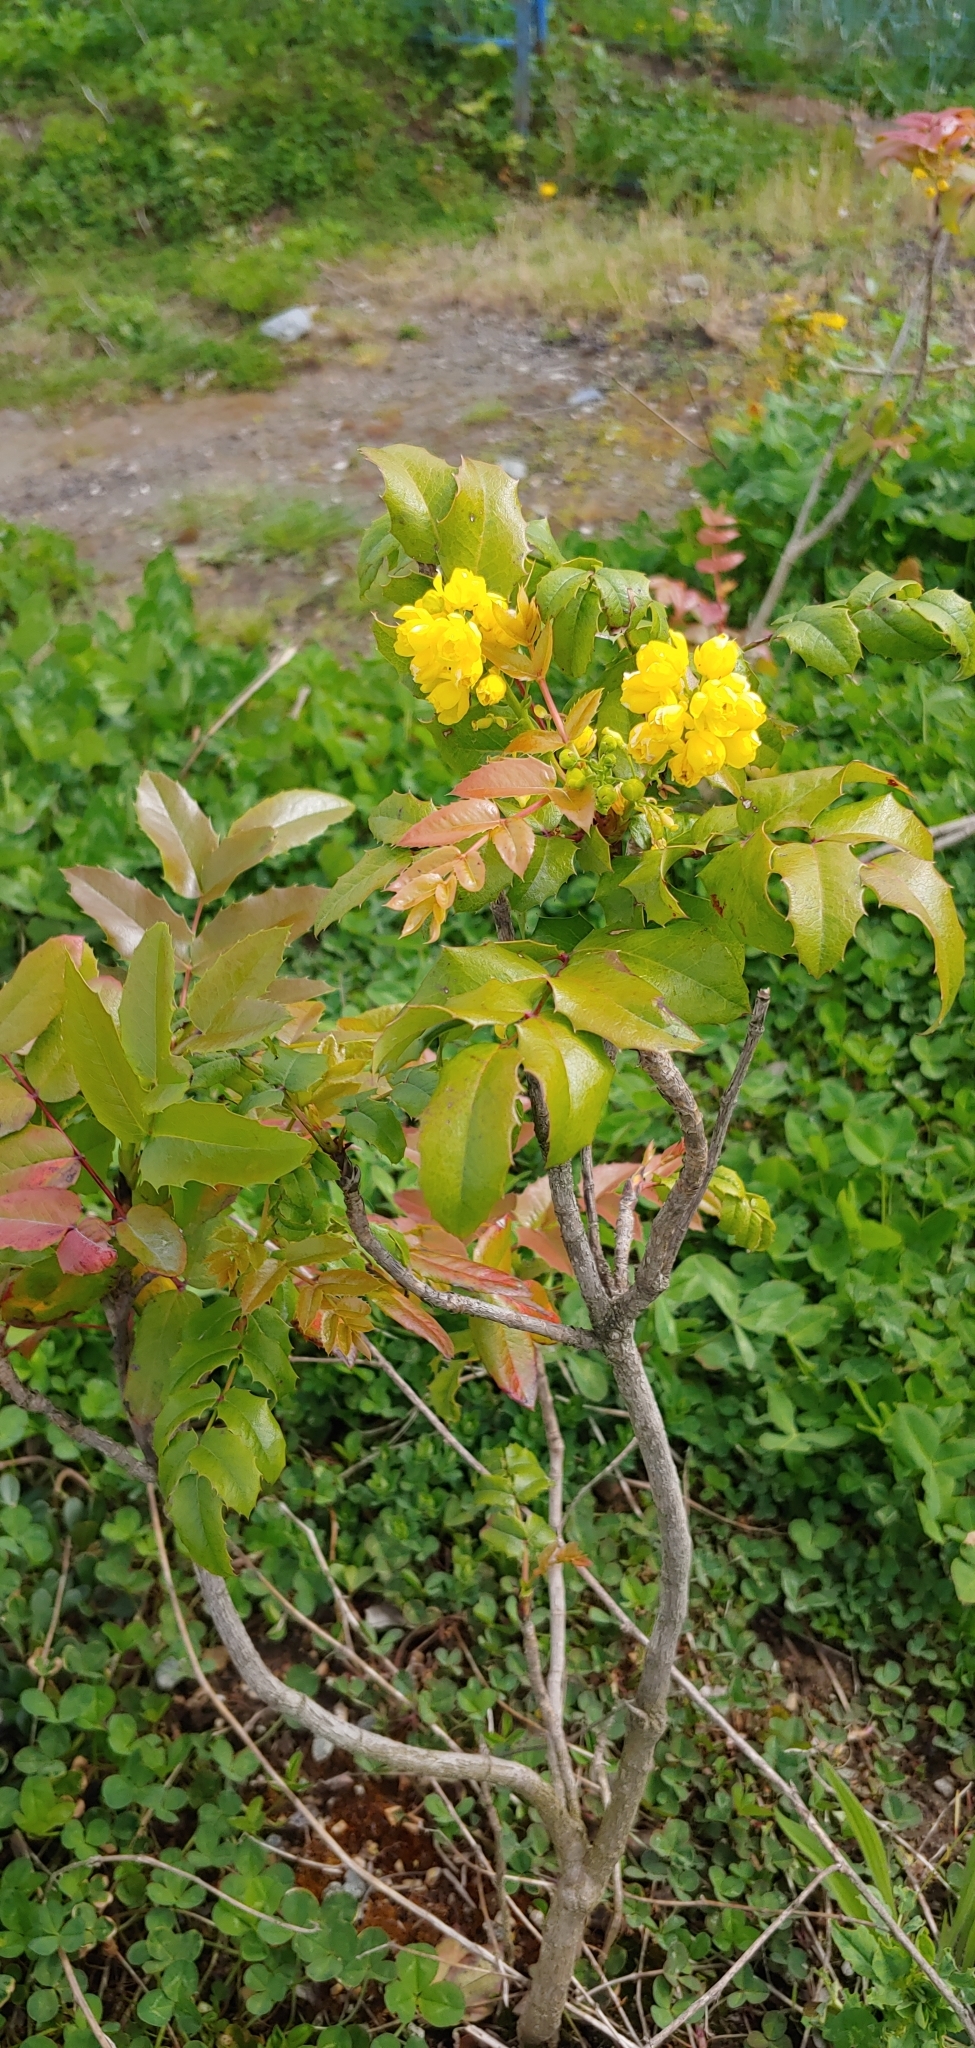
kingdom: Plantae
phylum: Tracheophyta
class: Magnoliopsida
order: Ranunculales
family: Berberidaceae
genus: Mahonia
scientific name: Mahonia aquifolium
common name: Oregon-grape
